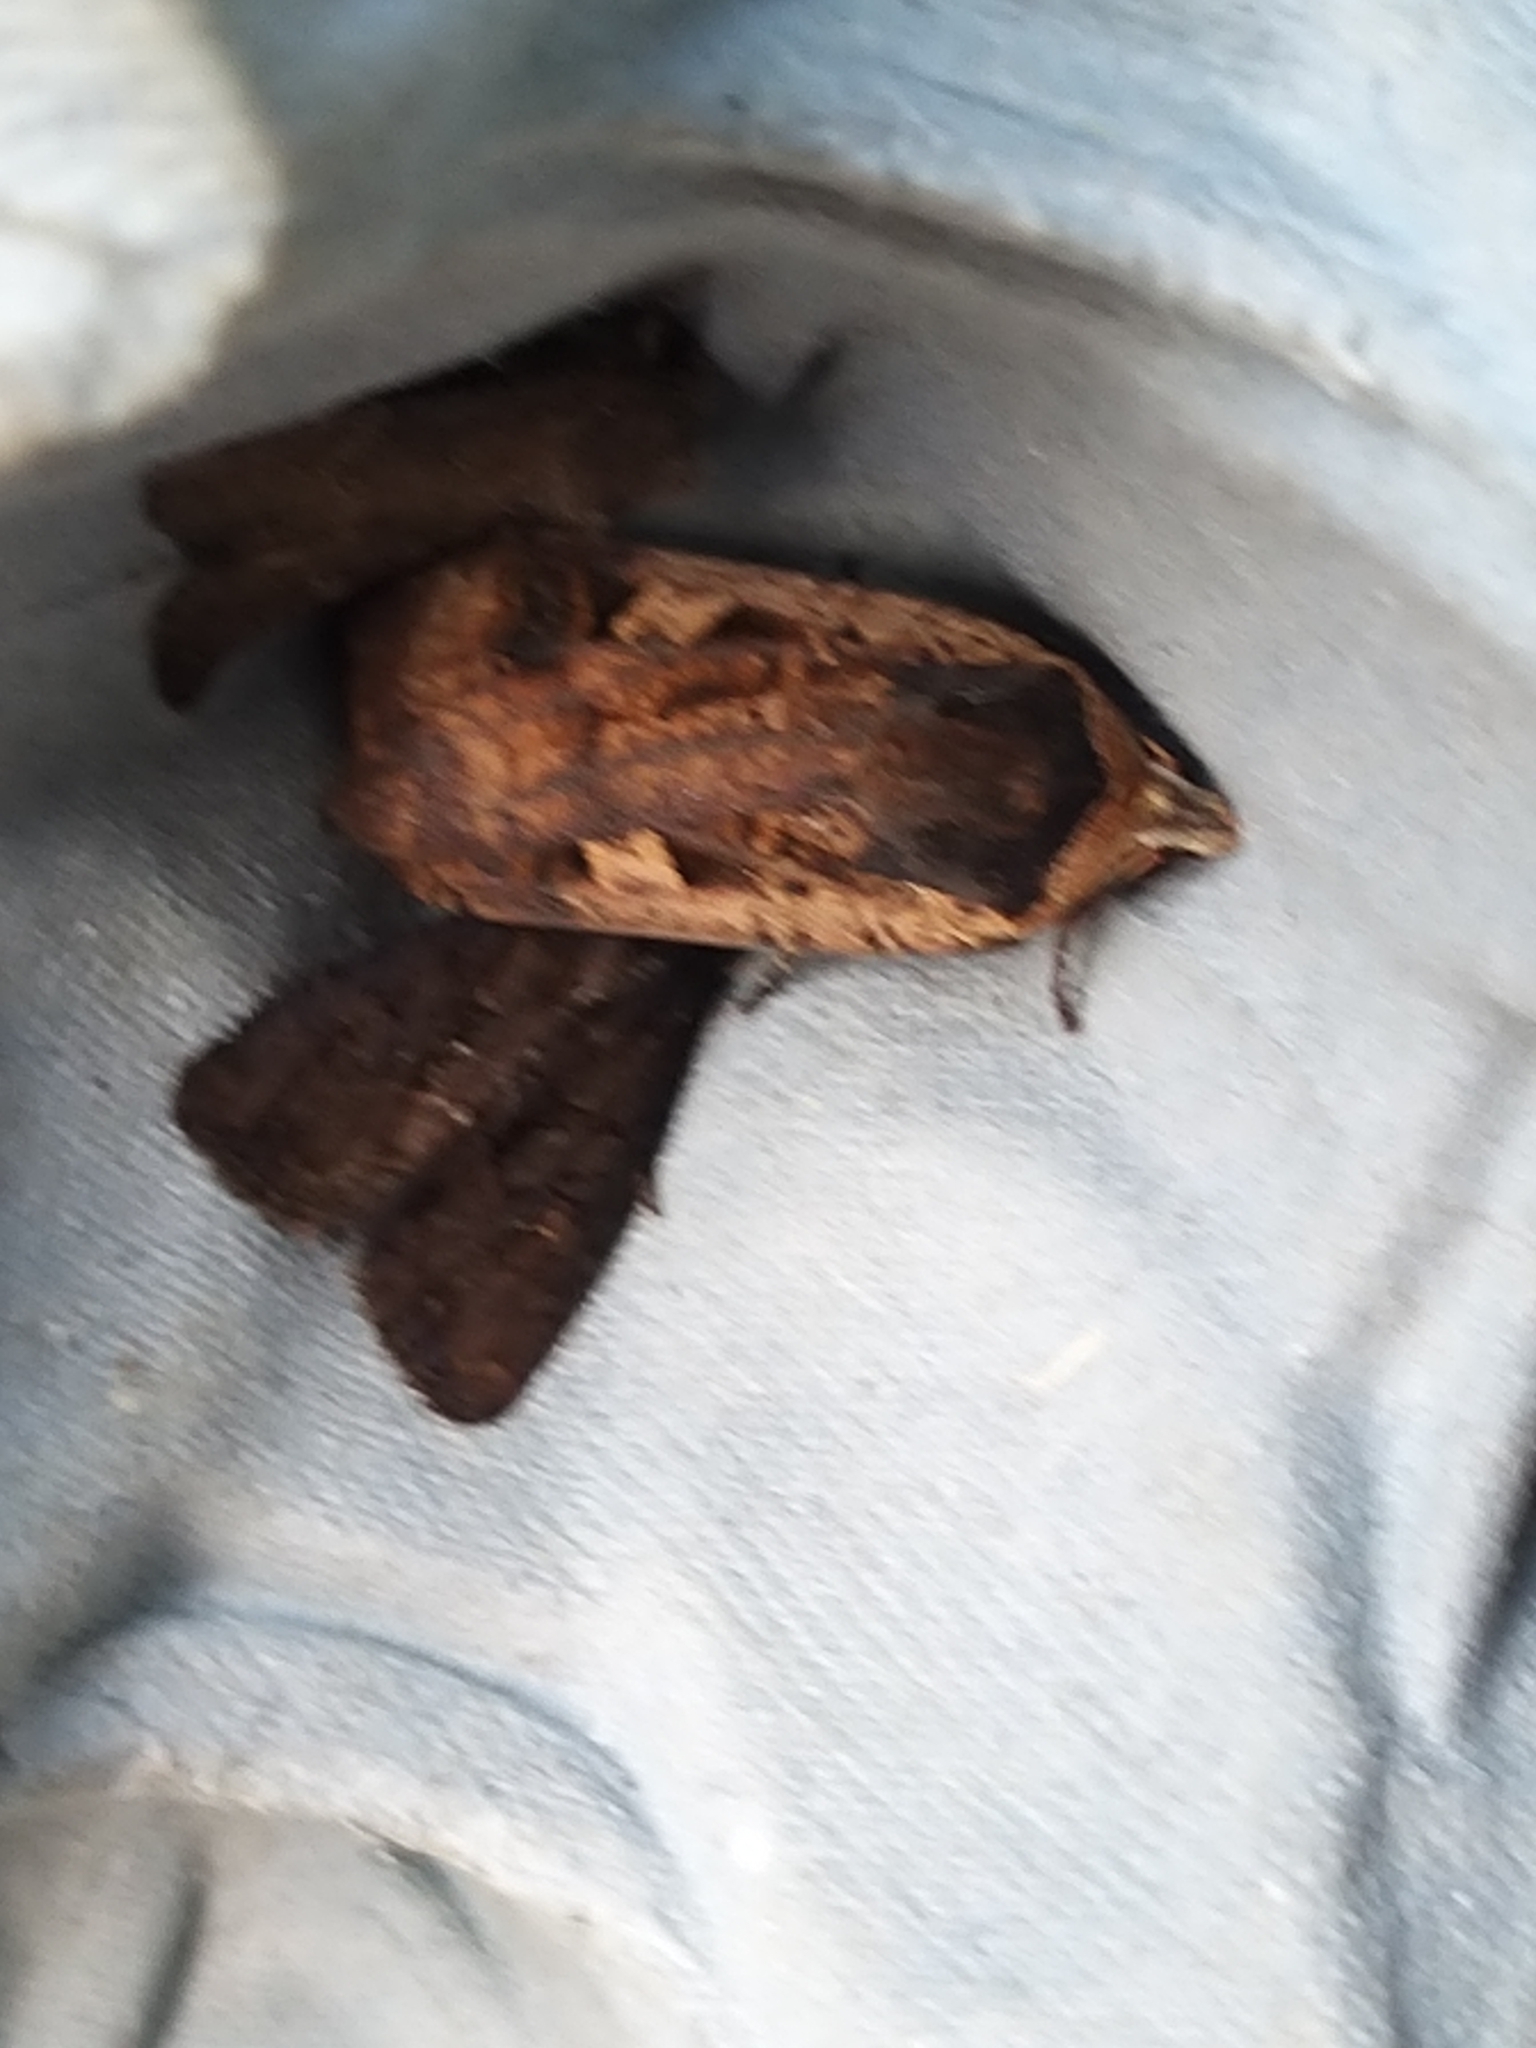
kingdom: Animalia
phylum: Arthropoda
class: Insecta
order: Lepidoptera
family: Noctuidae
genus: Noctua
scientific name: Noctua pronuba
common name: Large yellow underwing
